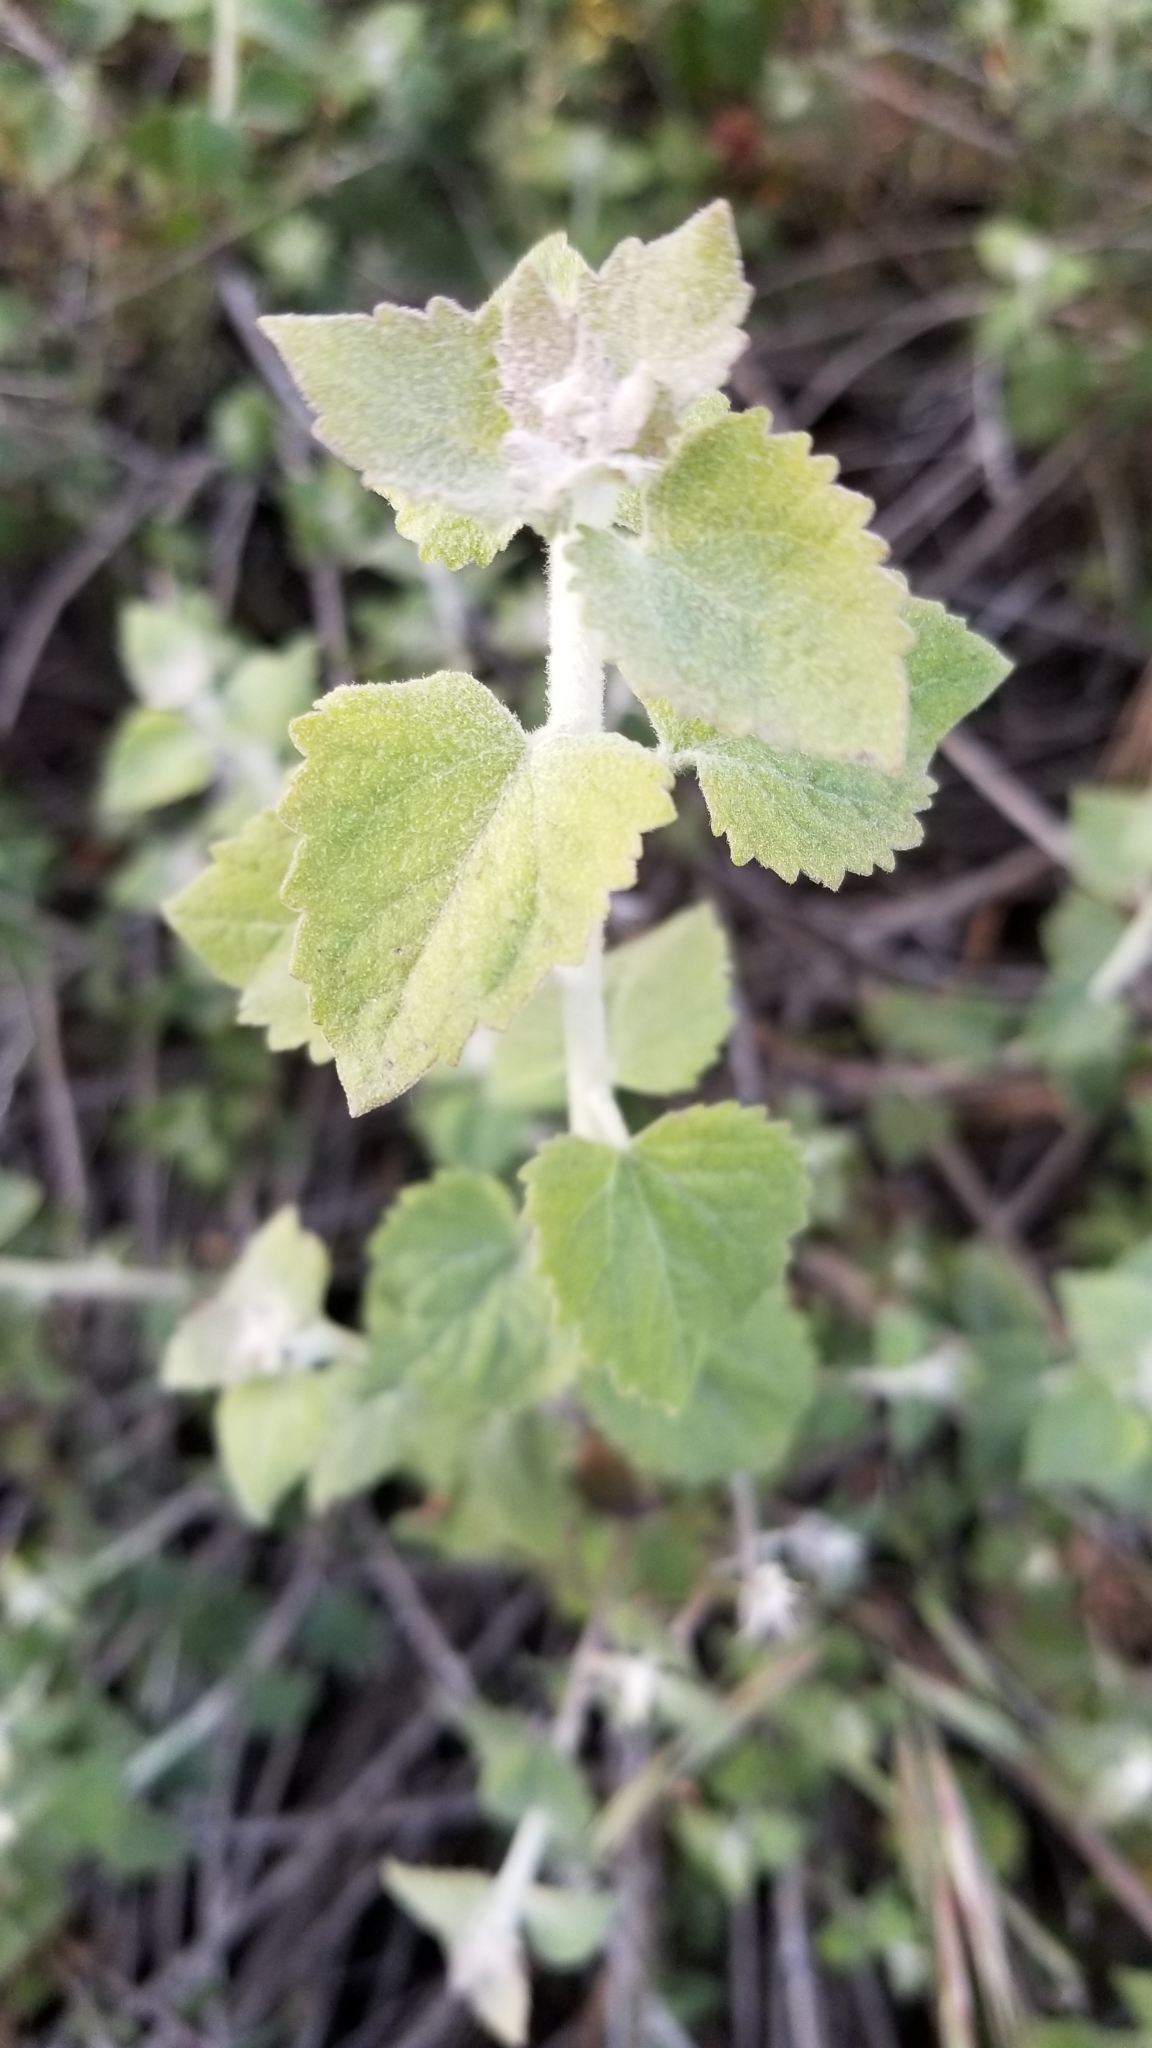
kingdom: Plantae
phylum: Tracheophyta
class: Magnoliopsida
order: Asterales
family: Asteraceae
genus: Brickellia
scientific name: Brickellia californica
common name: California brickellbush
